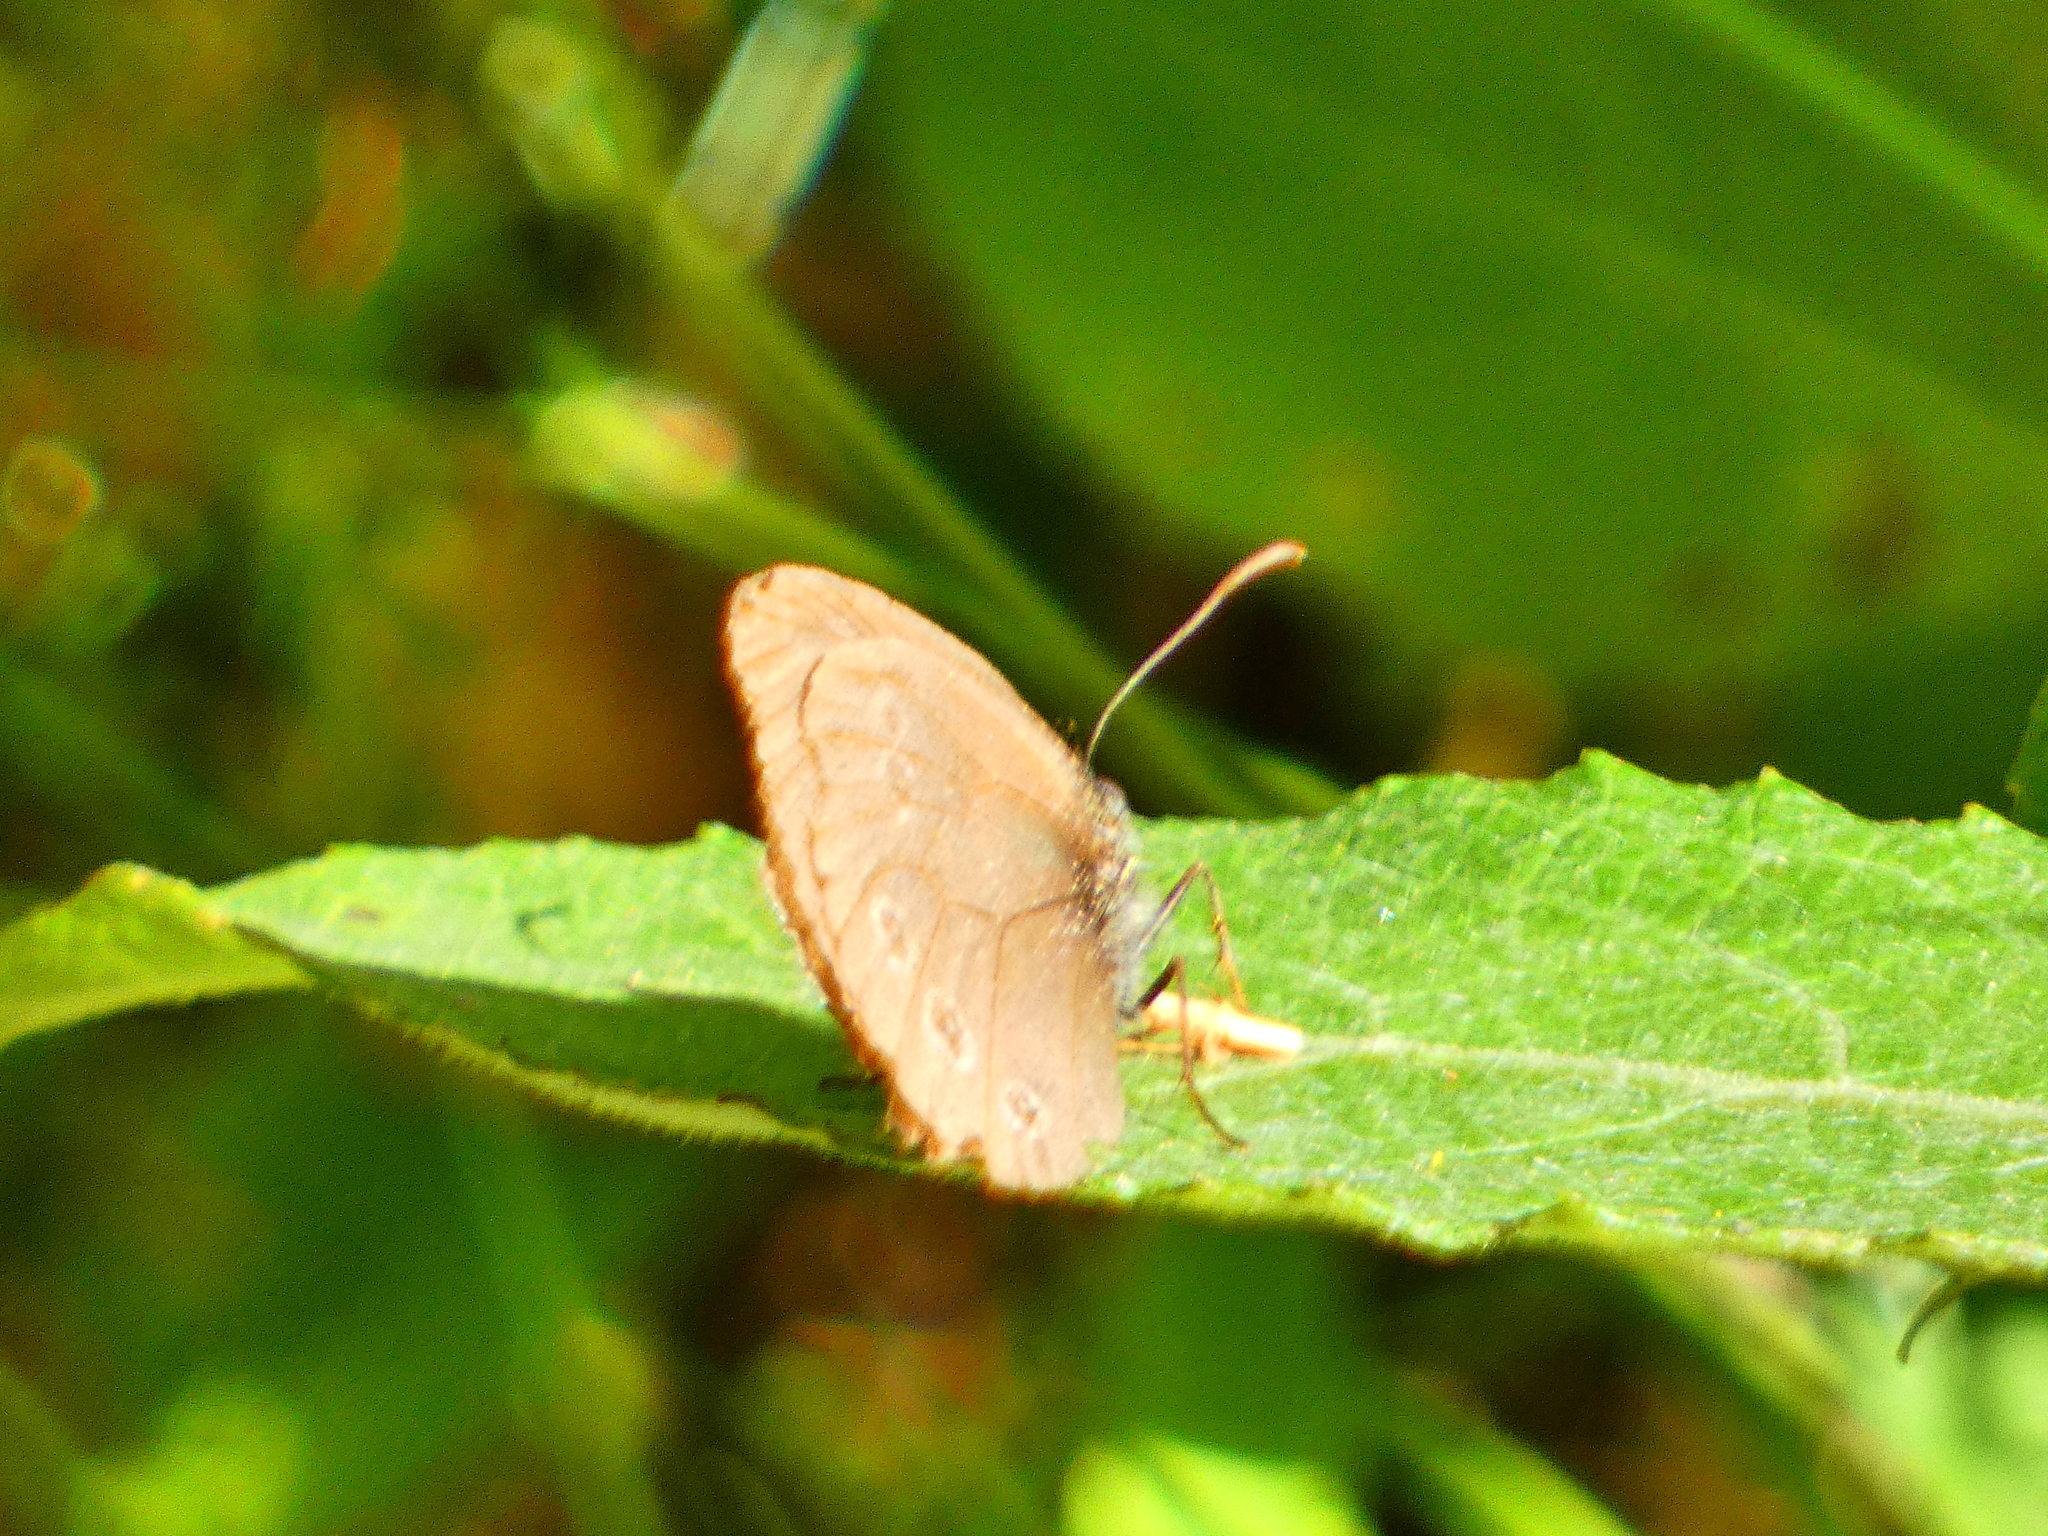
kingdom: Animalia
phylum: Arthropoda
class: Insecta
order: Lepidoptera
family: Nymphalidae
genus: Aphantopus
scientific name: Aphantopus hyperantus
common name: Ringlet
